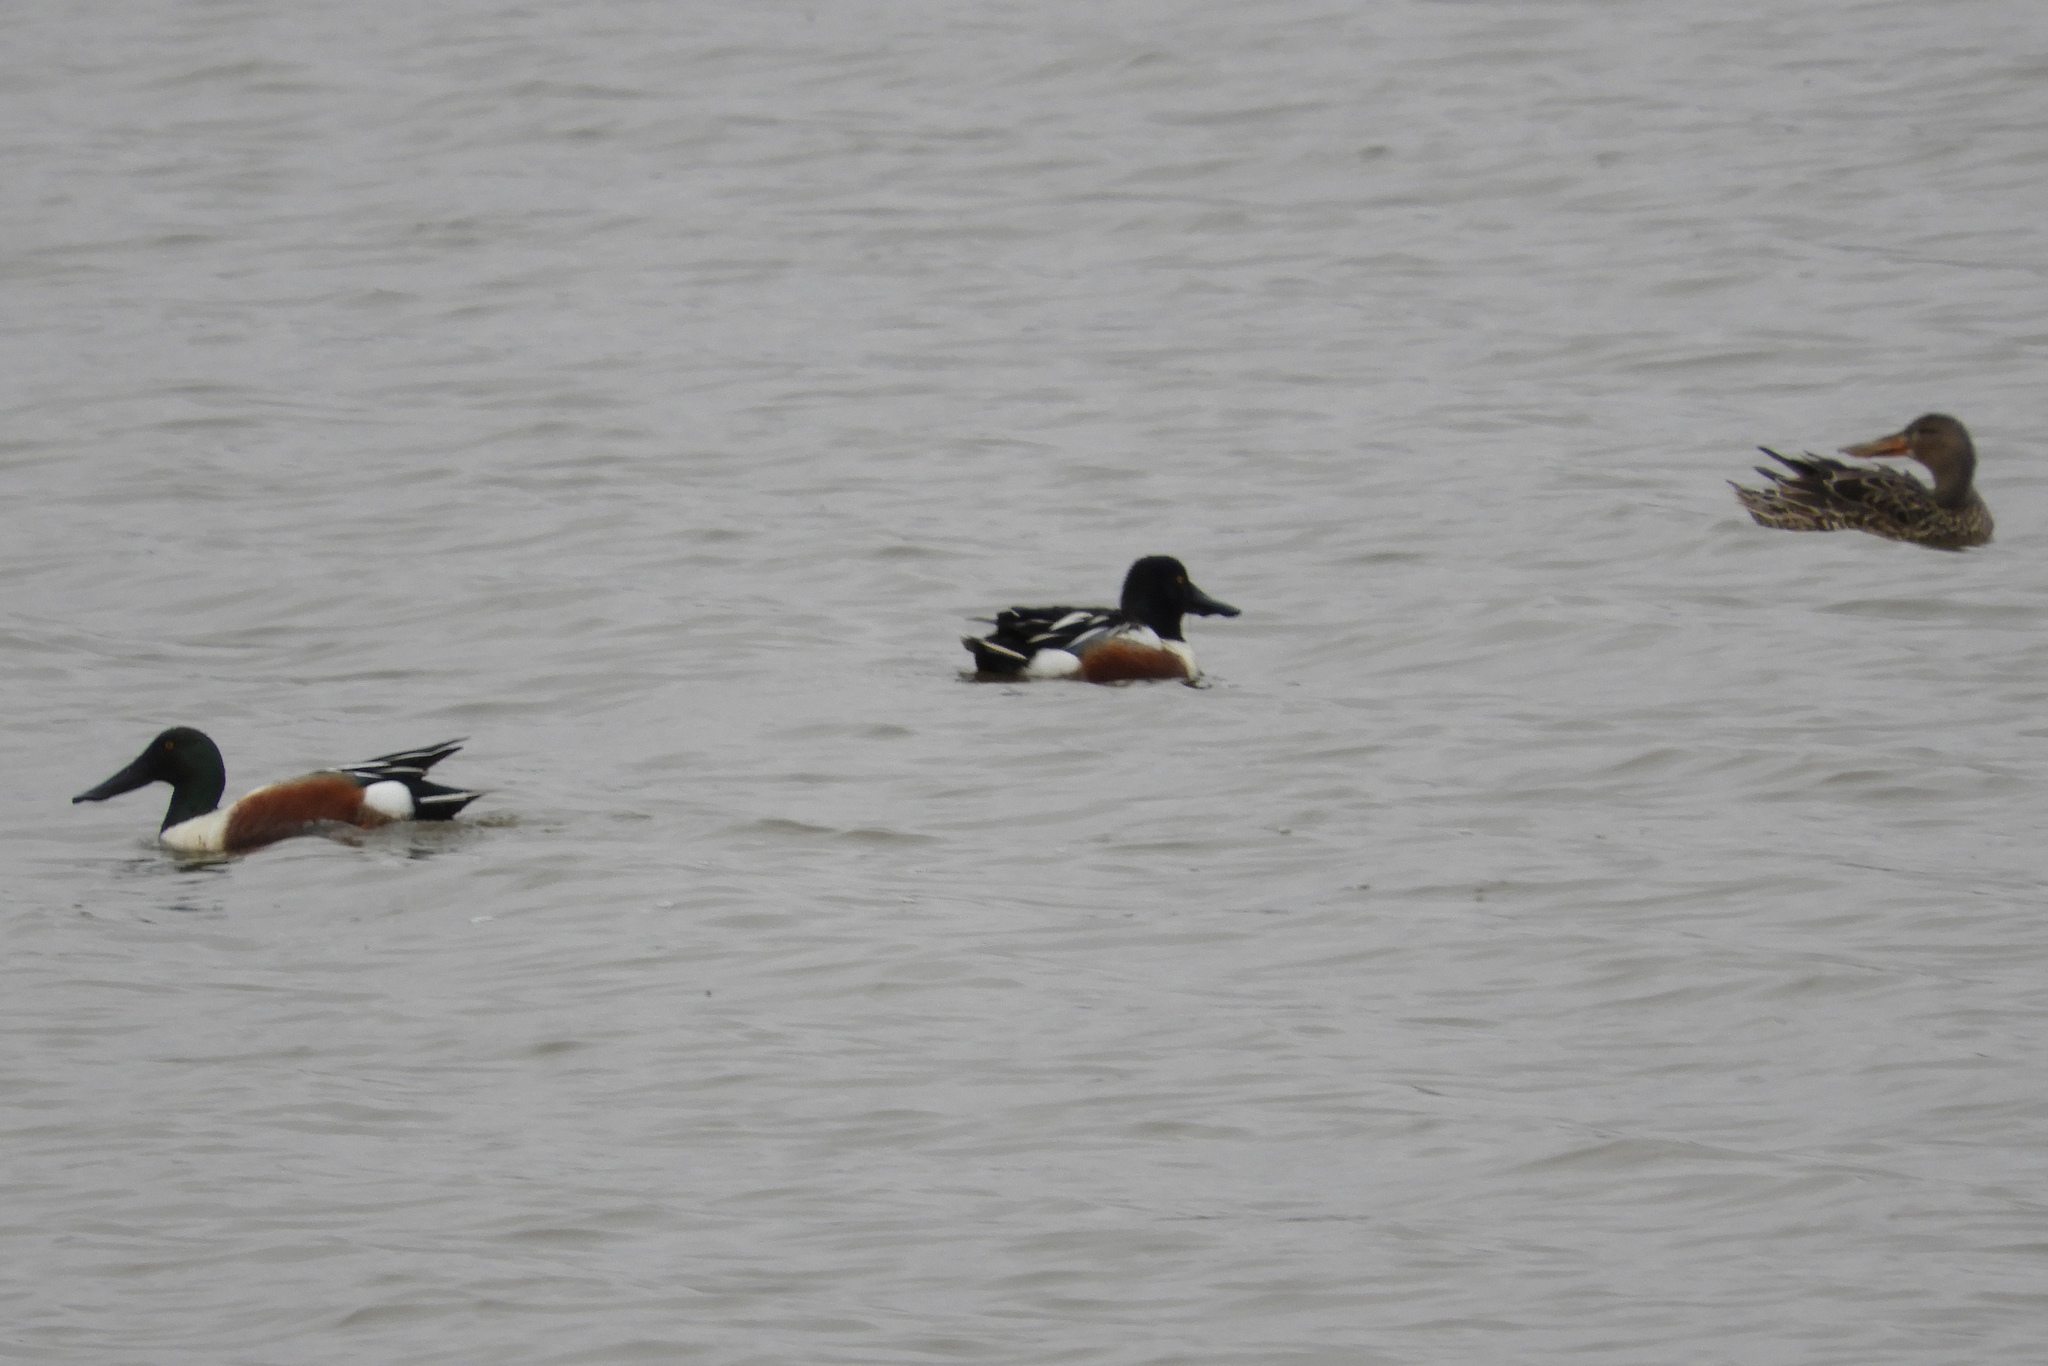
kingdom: Animalia
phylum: Chordata
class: Aves
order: Anseriformes
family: Anatidae
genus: Spatula
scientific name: Spatula clypeata
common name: Northern shoveler
